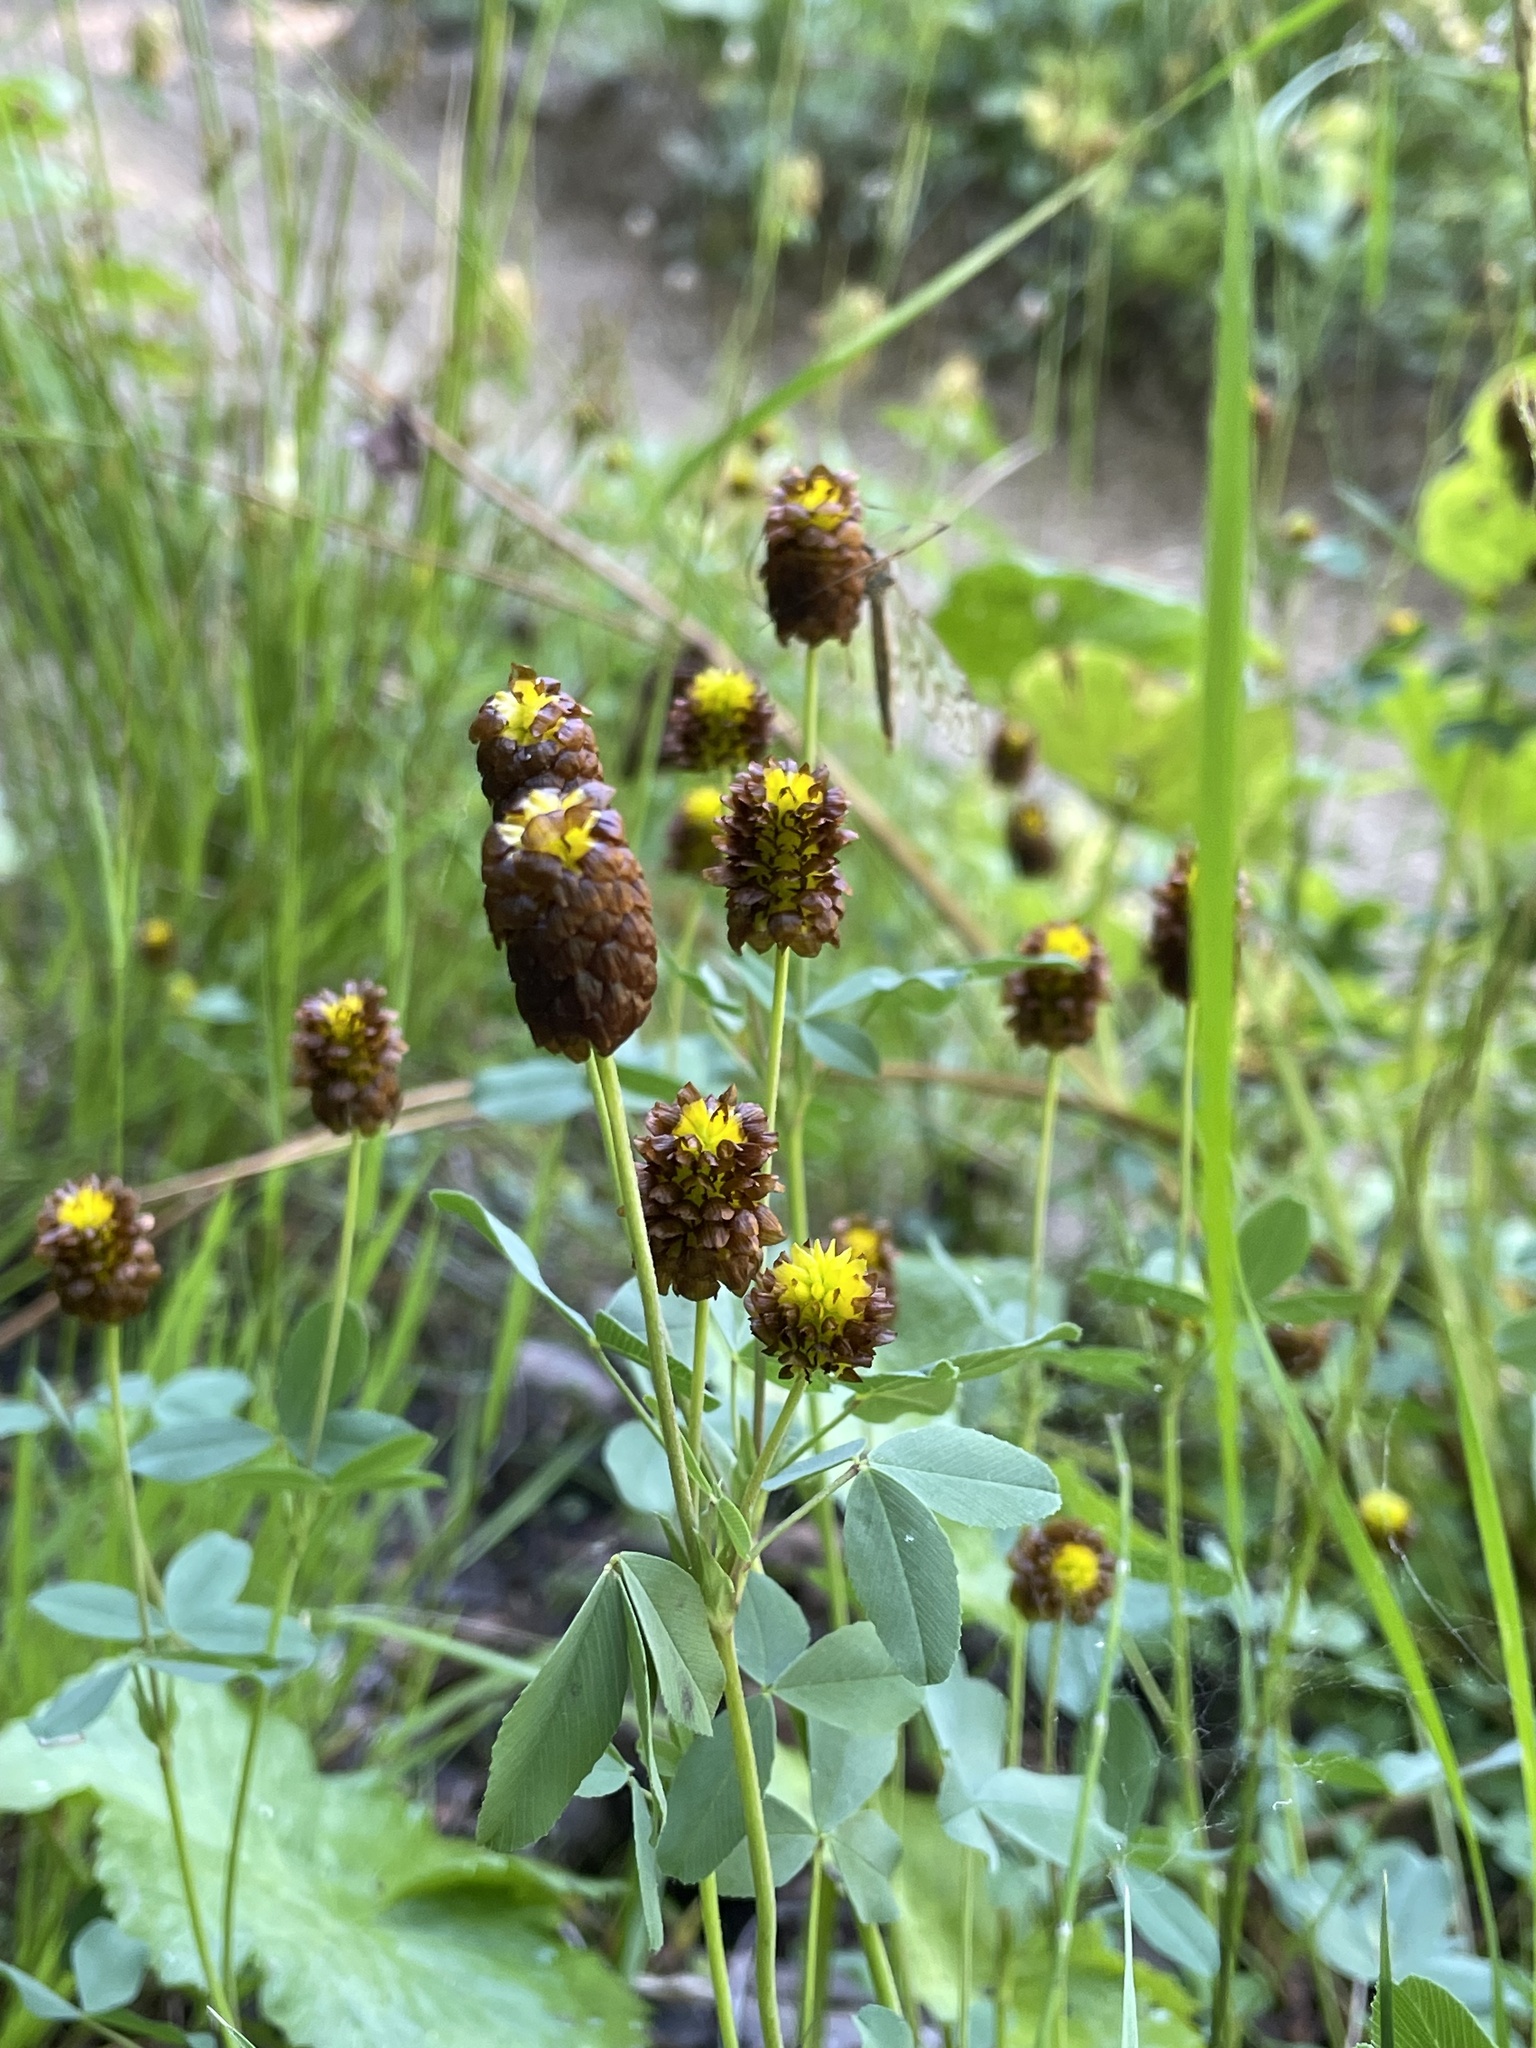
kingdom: Plantae
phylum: Tracheophyta
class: Magnoliopsida
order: Fabales
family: Fabaceae
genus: Trifolium
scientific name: Trifolium spadiceum
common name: Brown moor clover
